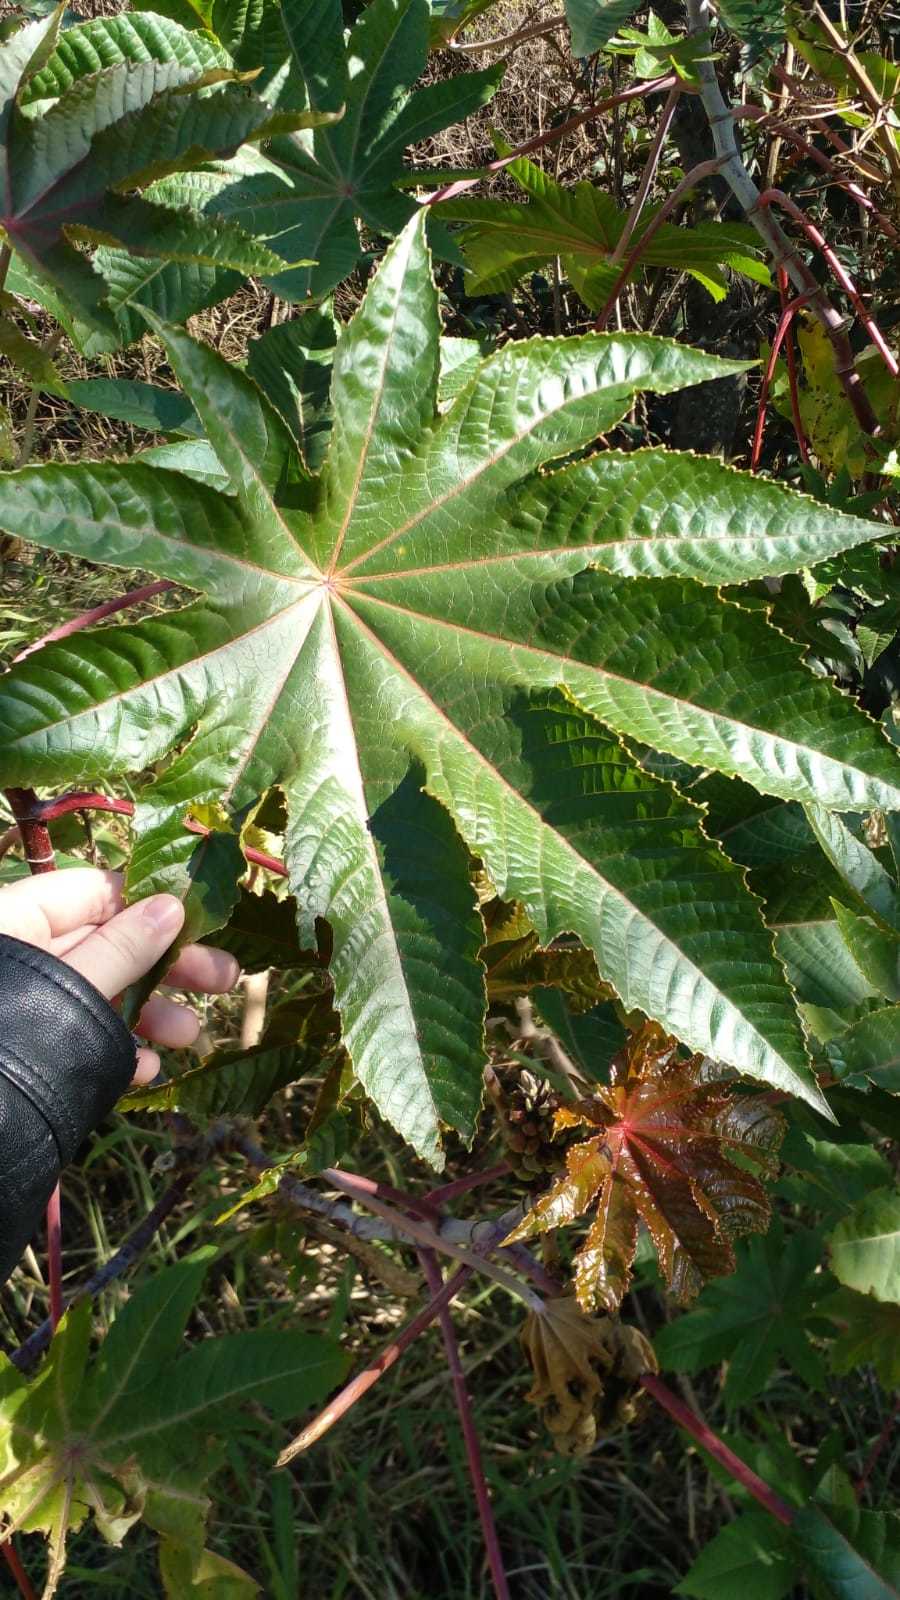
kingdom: Plantae
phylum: Tracheophyta
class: Magnoliopsida
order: Malpighiales
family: Euphorbiaceae
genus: Ricinus
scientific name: Ricinus communis
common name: Castor-oil-plant
